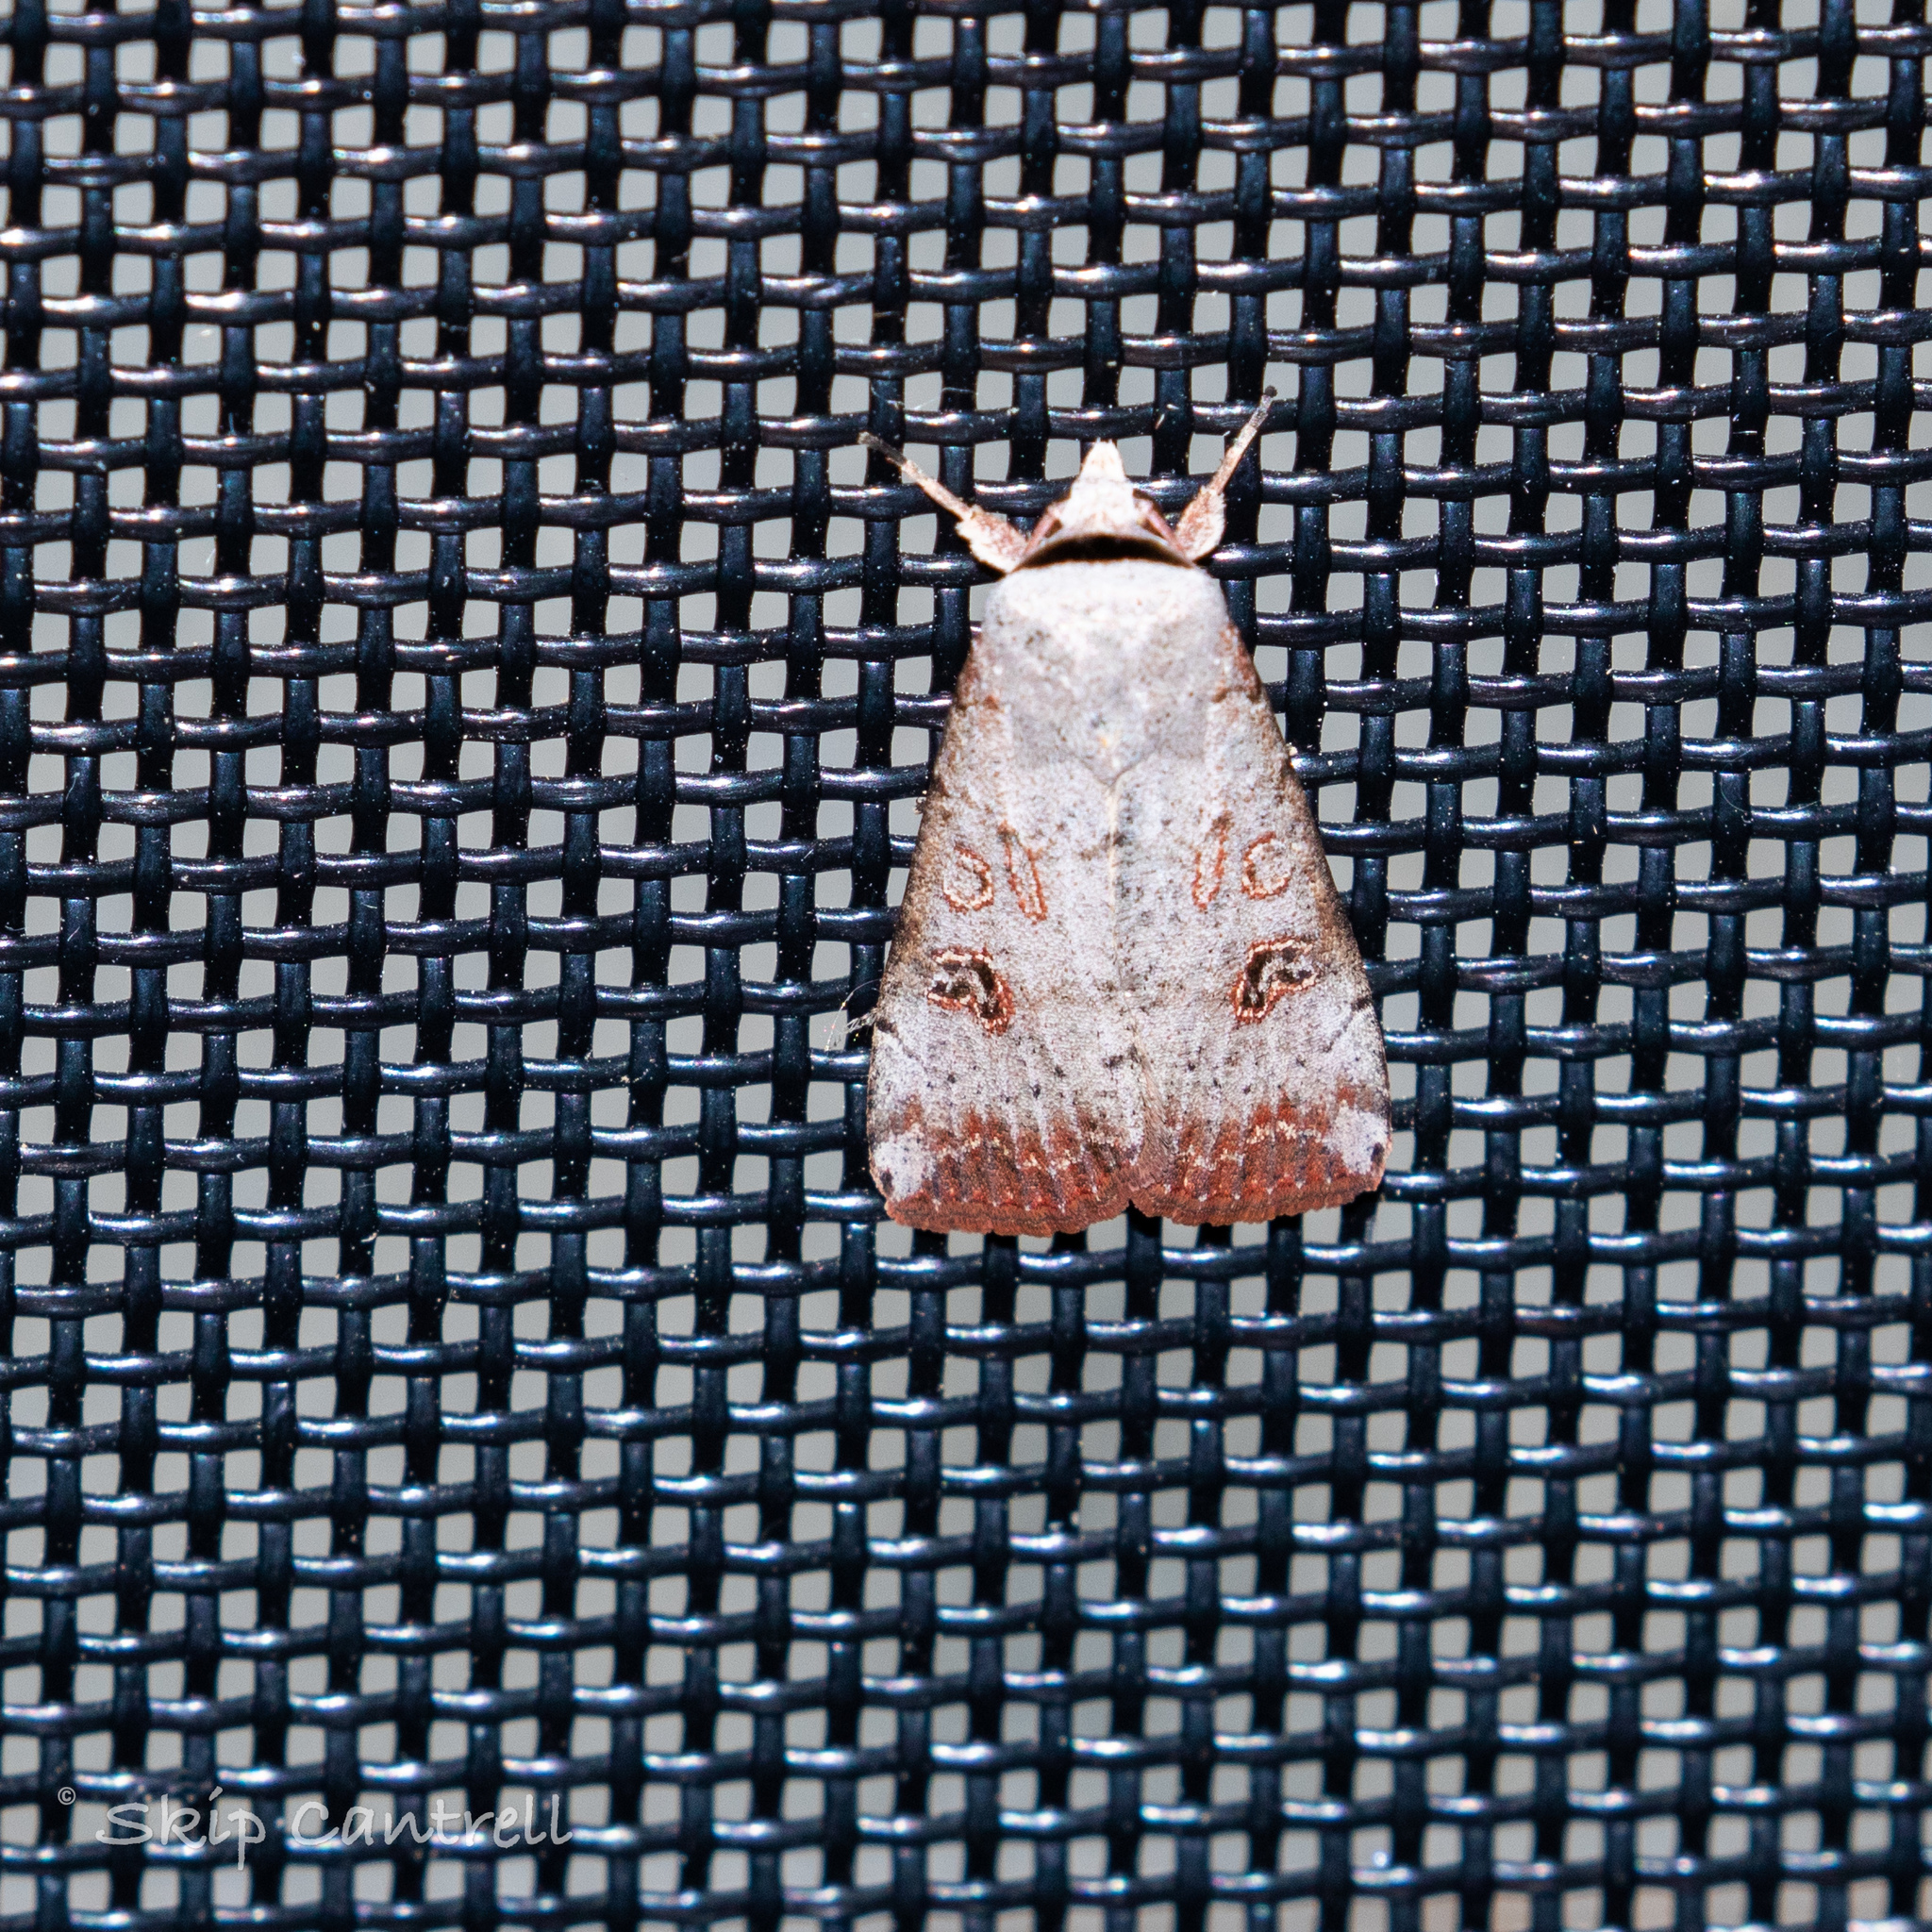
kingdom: Animalia
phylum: Arthropoda
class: Insecta
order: Lepidoptera
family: Noctuidae
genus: Anicla
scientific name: Anicla infecta
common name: Green cutworm
